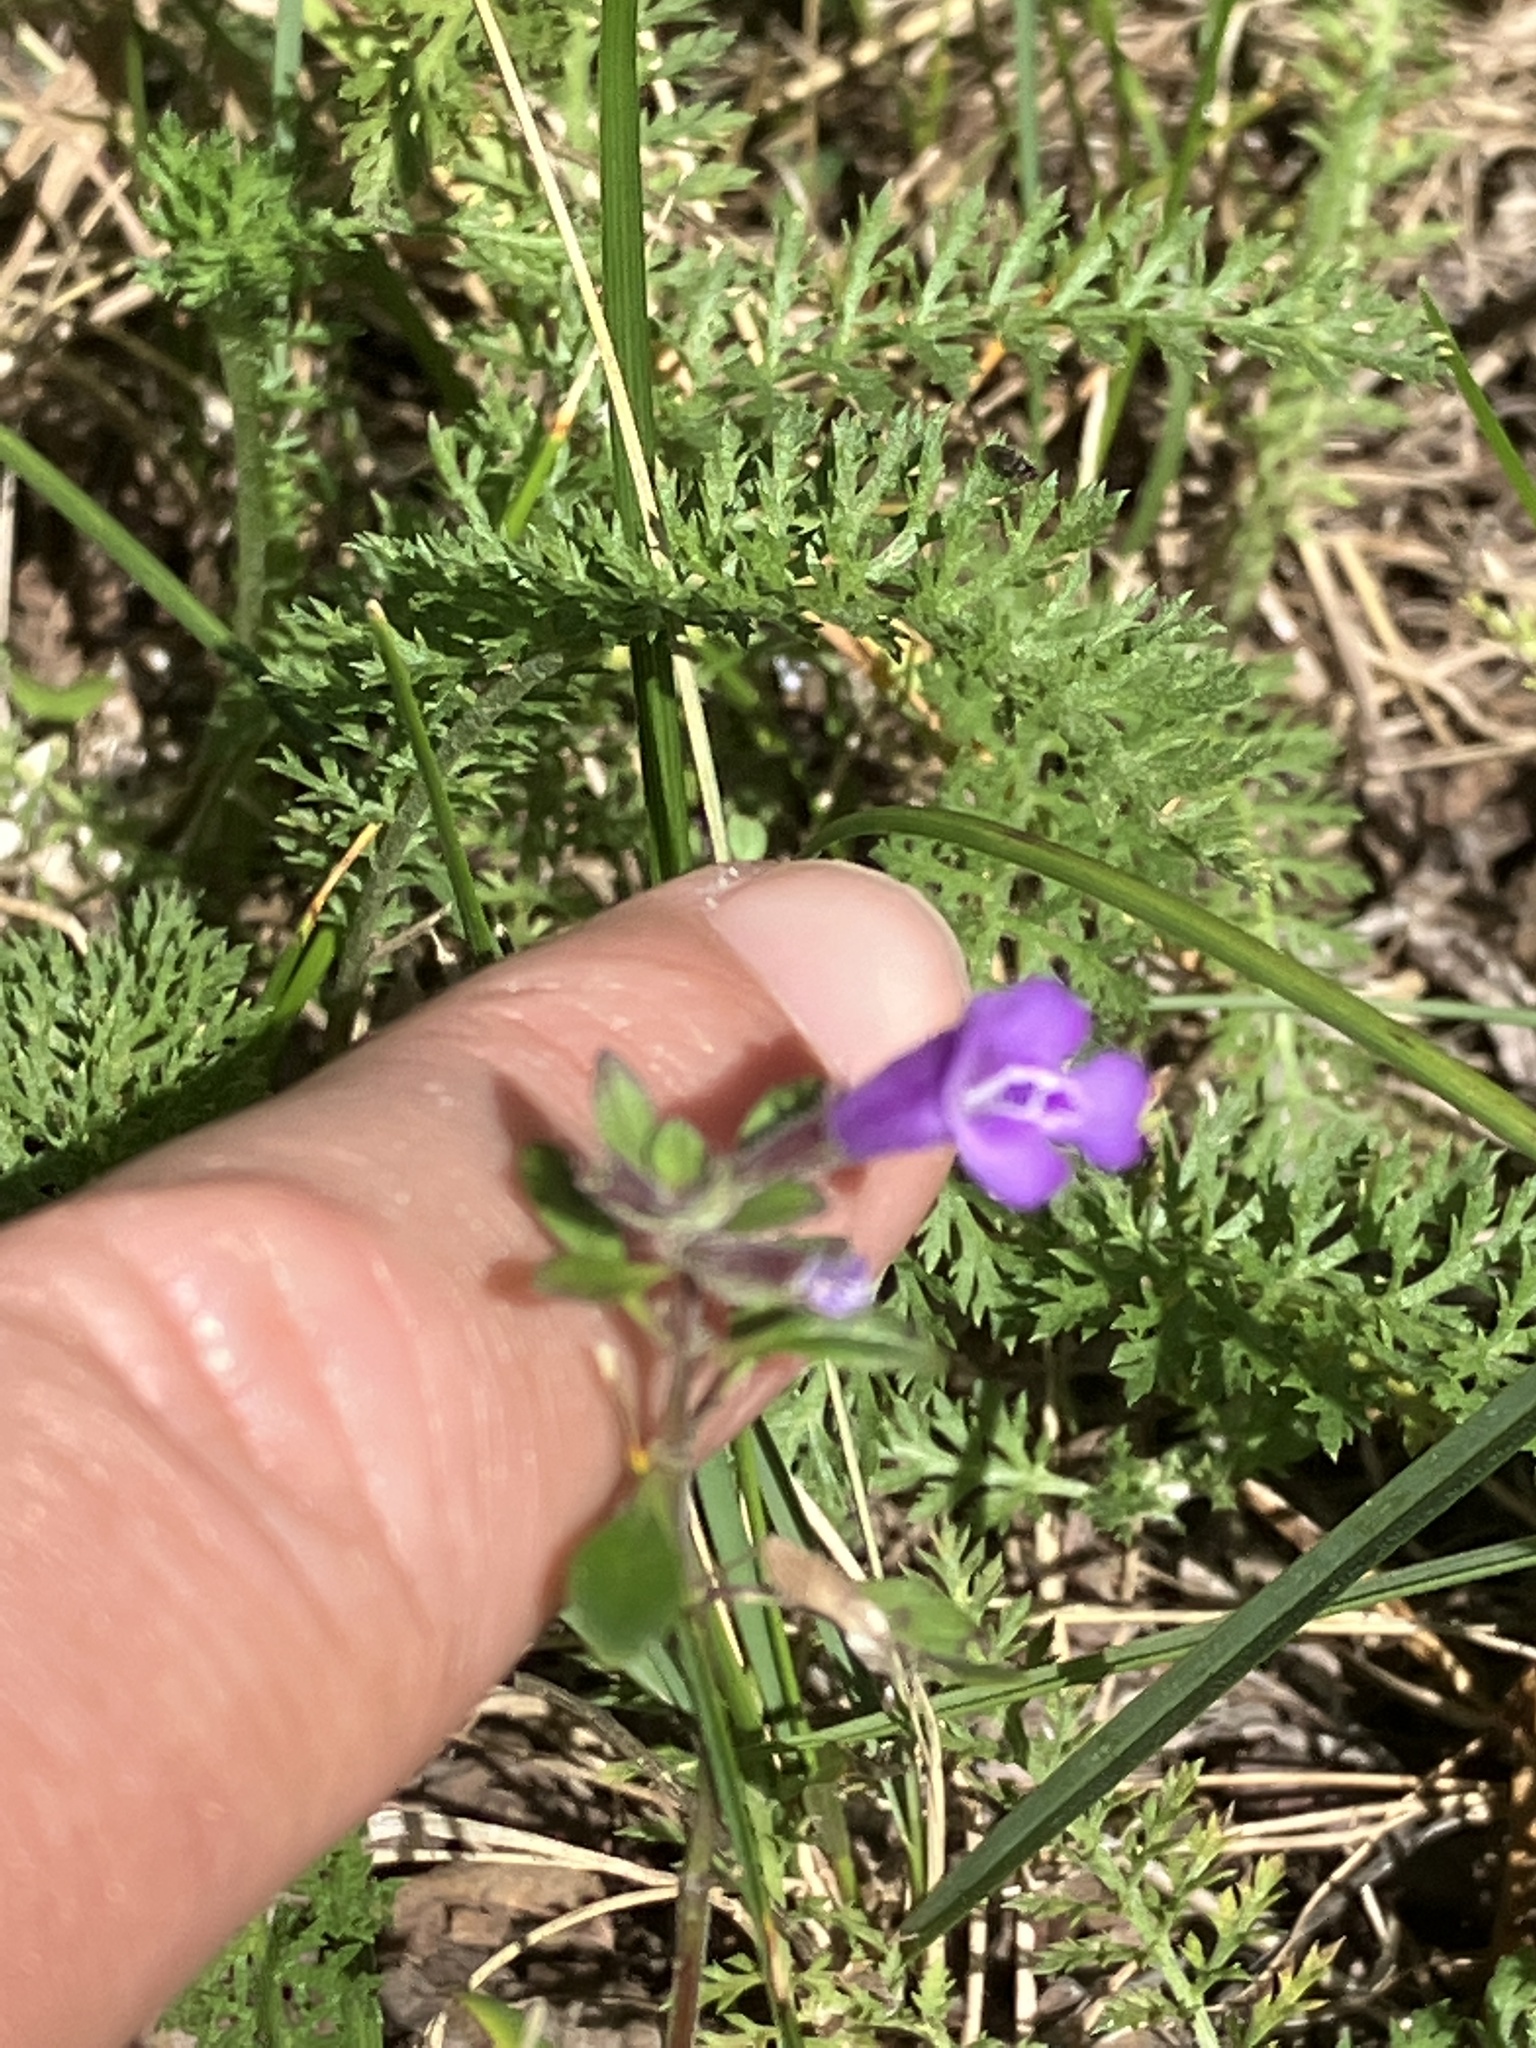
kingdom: Plantae
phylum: Tracheophyta
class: Magnoliopsida
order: Lamiales
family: Lamiaceae
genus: Clinopodium
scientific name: Clinopodium alpinum
